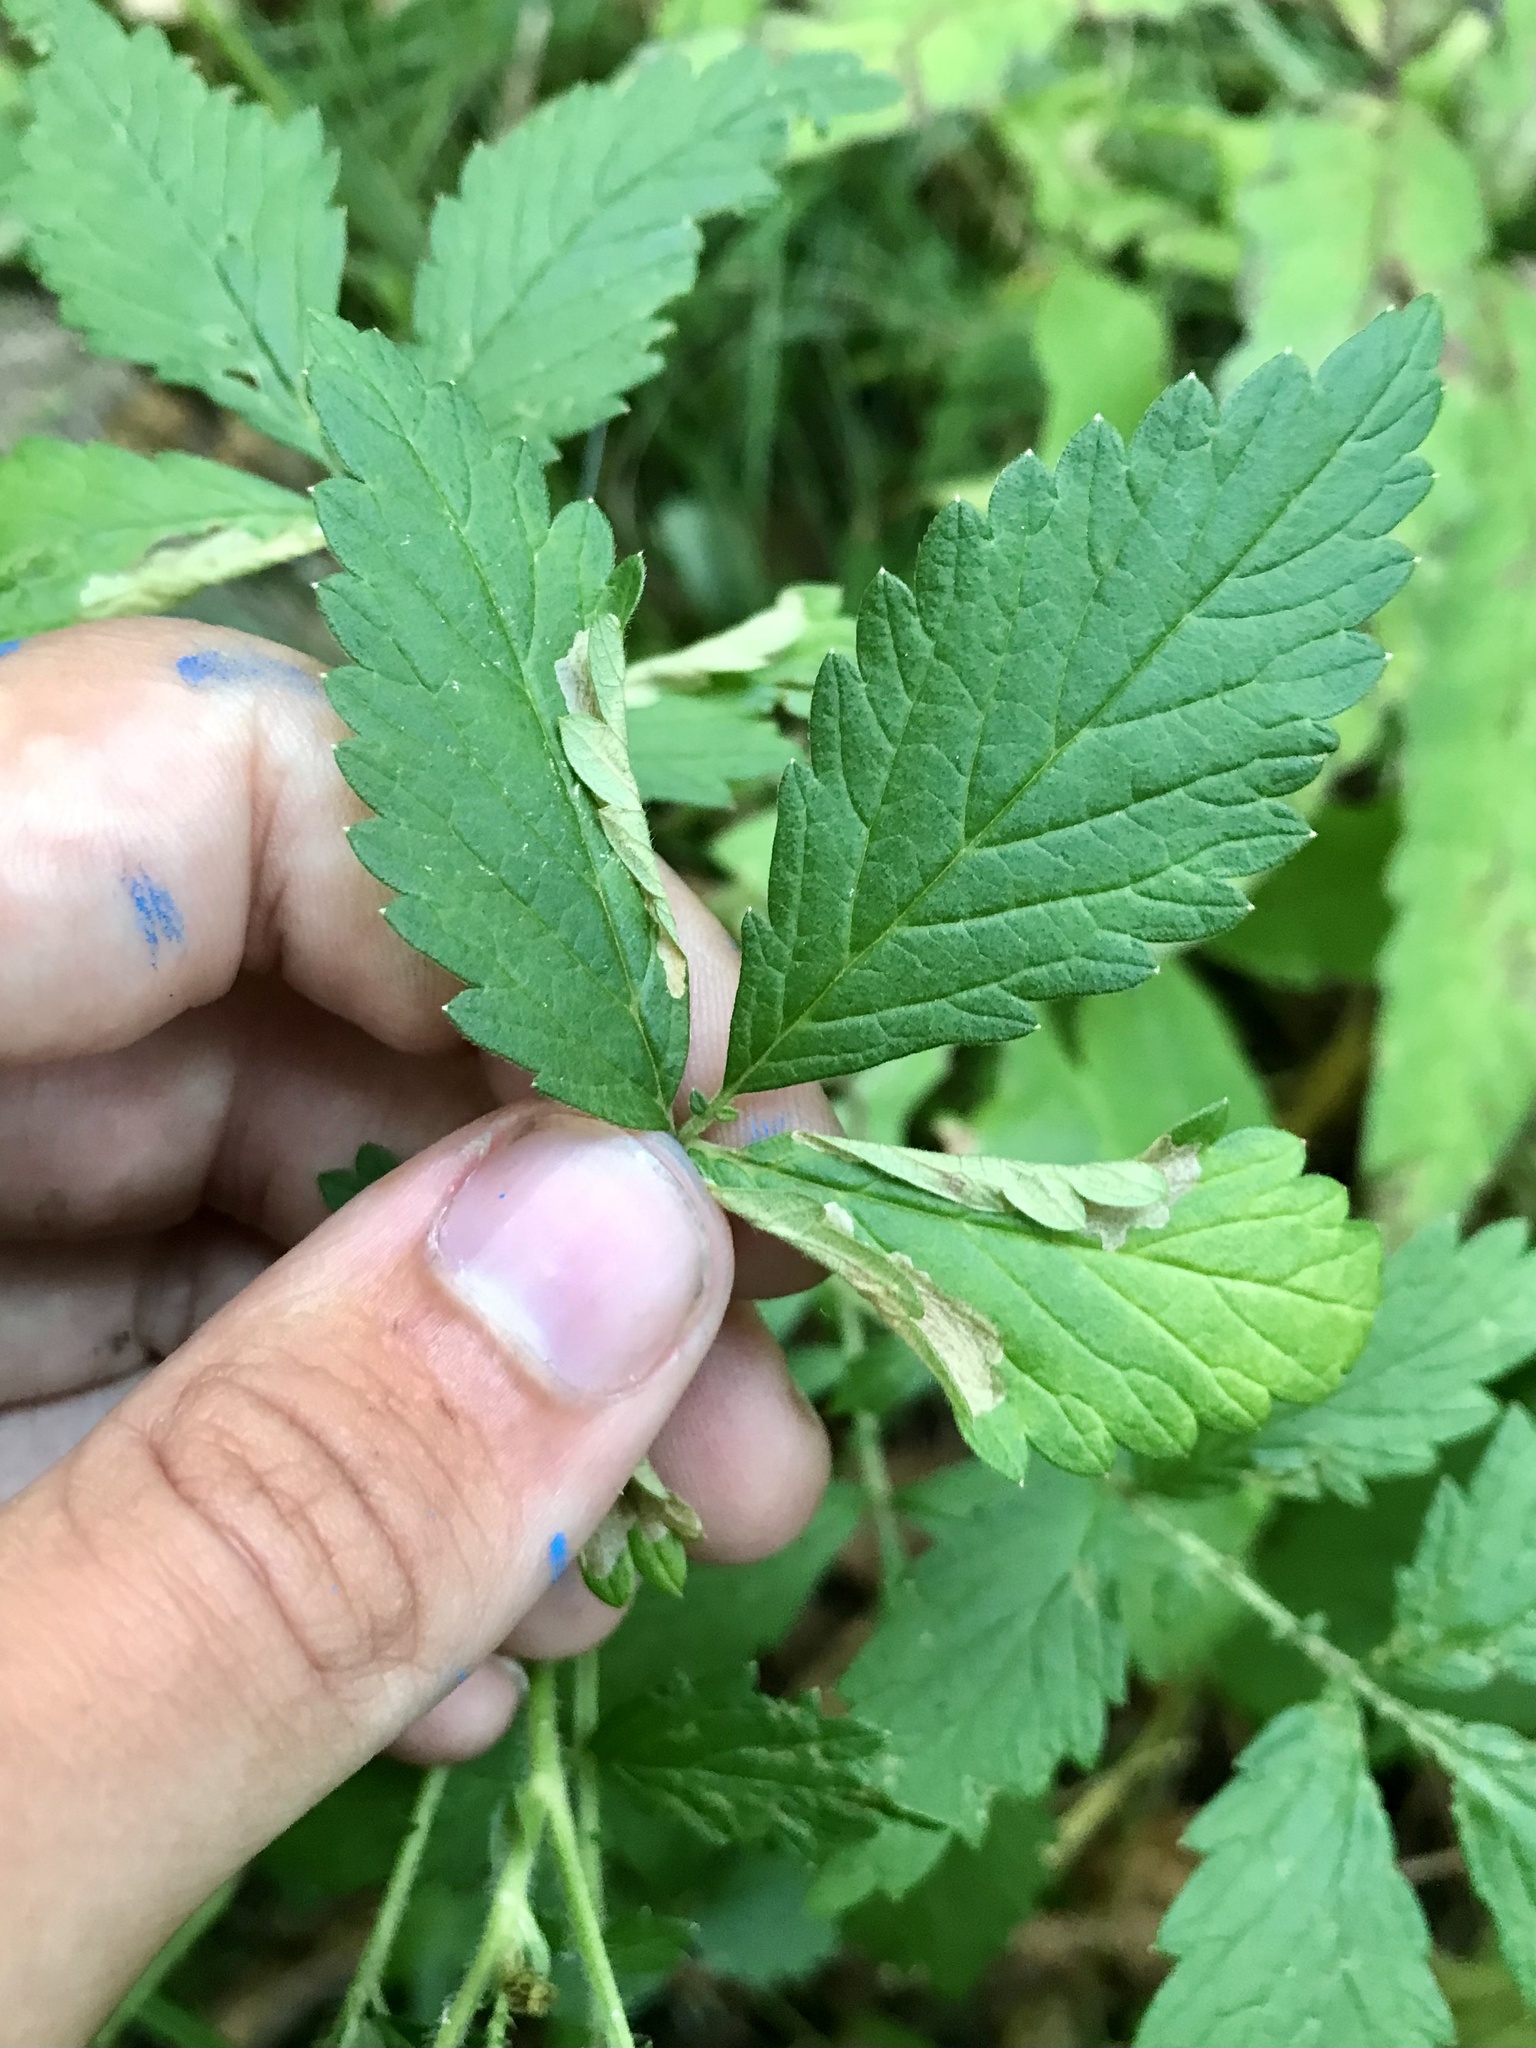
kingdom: Animalia
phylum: Arthropoda
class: Insecta
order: Lepidoptera
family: Tischeriidae
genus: Coptotriche
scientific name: Coptotriche agrimoniella
